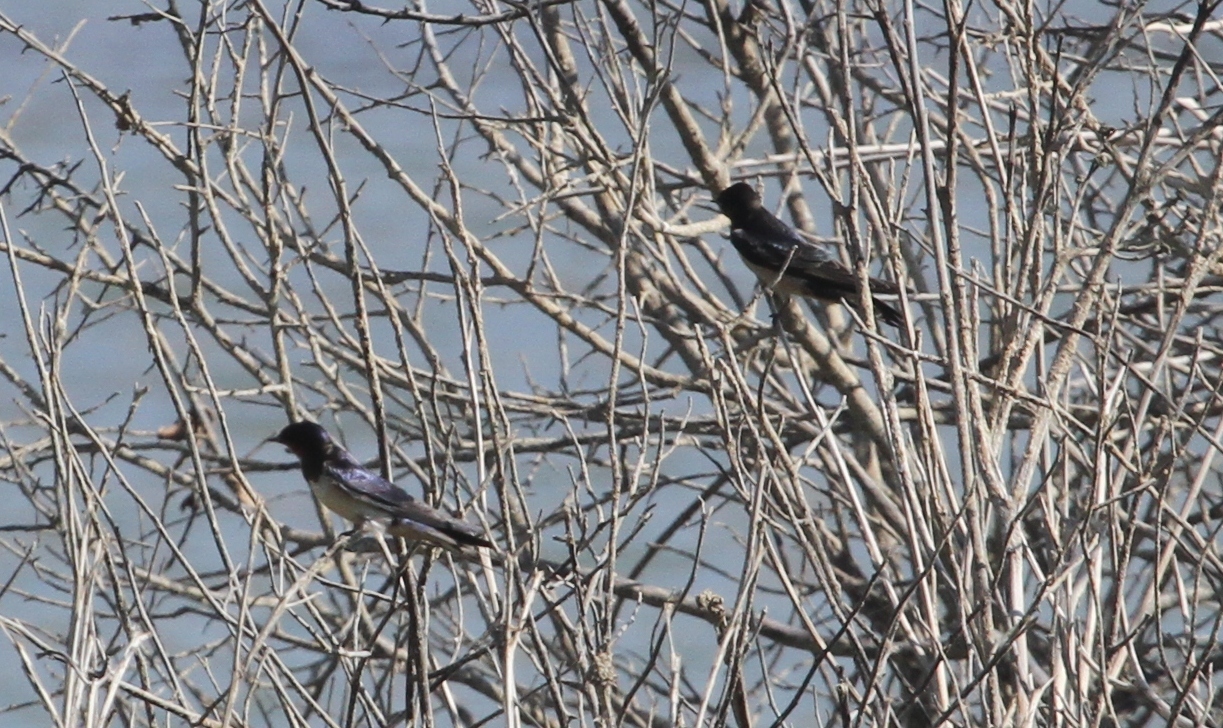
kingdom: Animalia
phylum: Chordata
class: Aves
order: Passeriformes
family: Hirundinidae
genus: Hirundo
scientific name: Hirundo rustica
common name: Barn swallow
